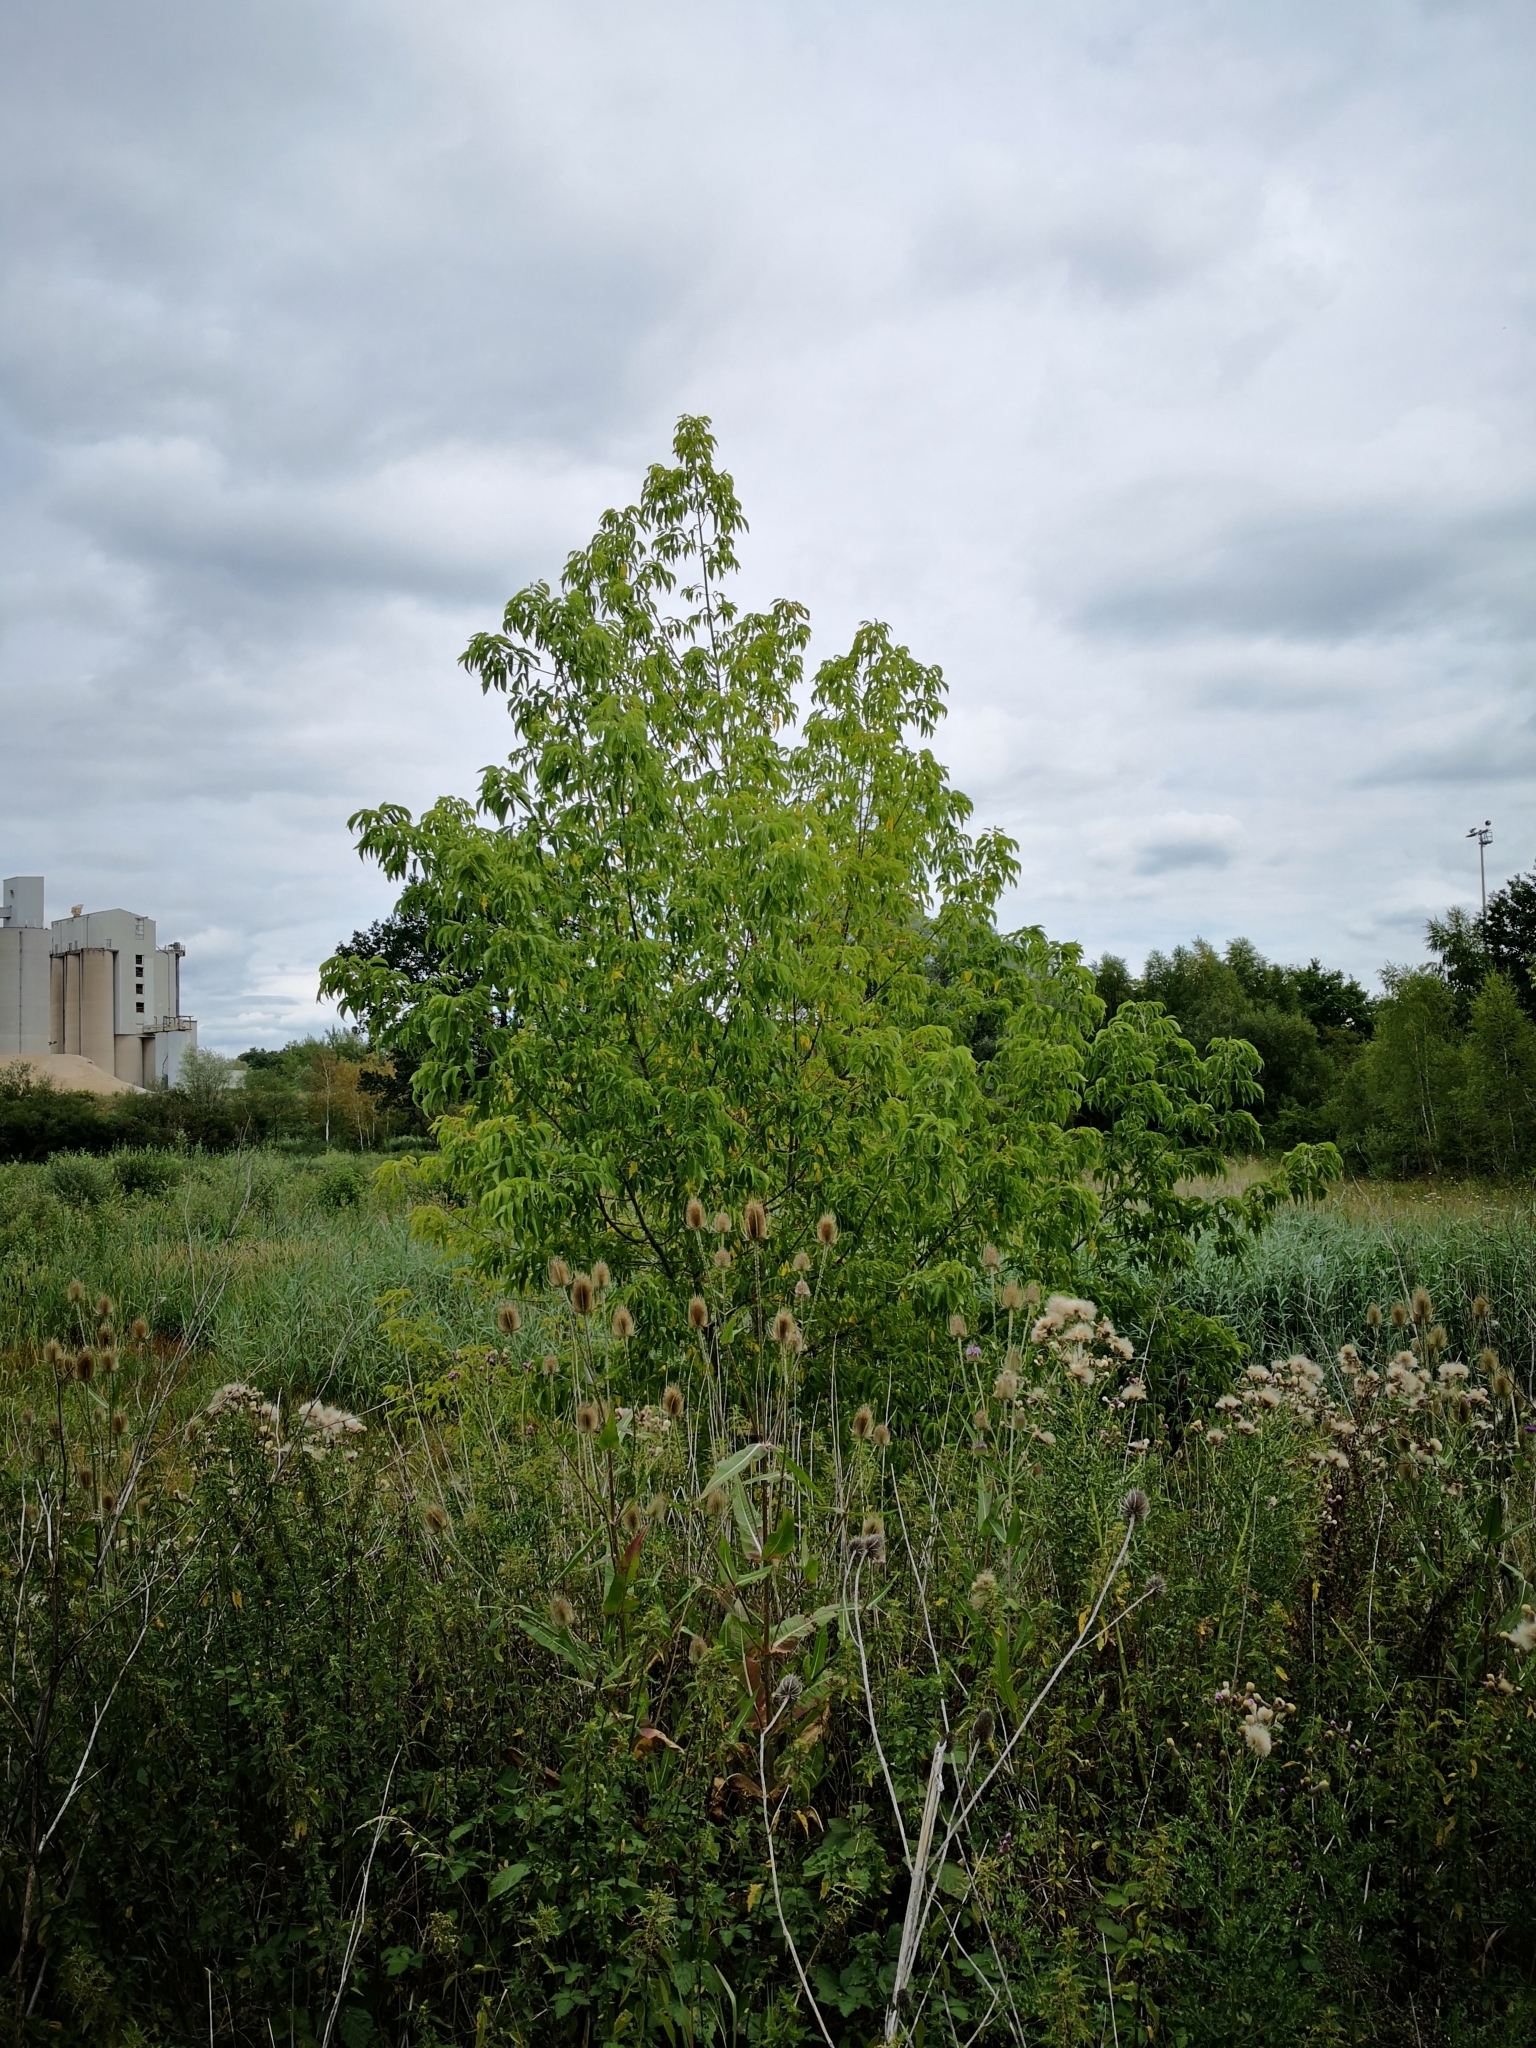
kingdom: Plantae
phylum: Tracheophyta
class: Magnoliopsida
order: Sapindales
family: Sapindaceae
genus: Acer
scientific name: Acer negundo
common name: Ashleaf maple
